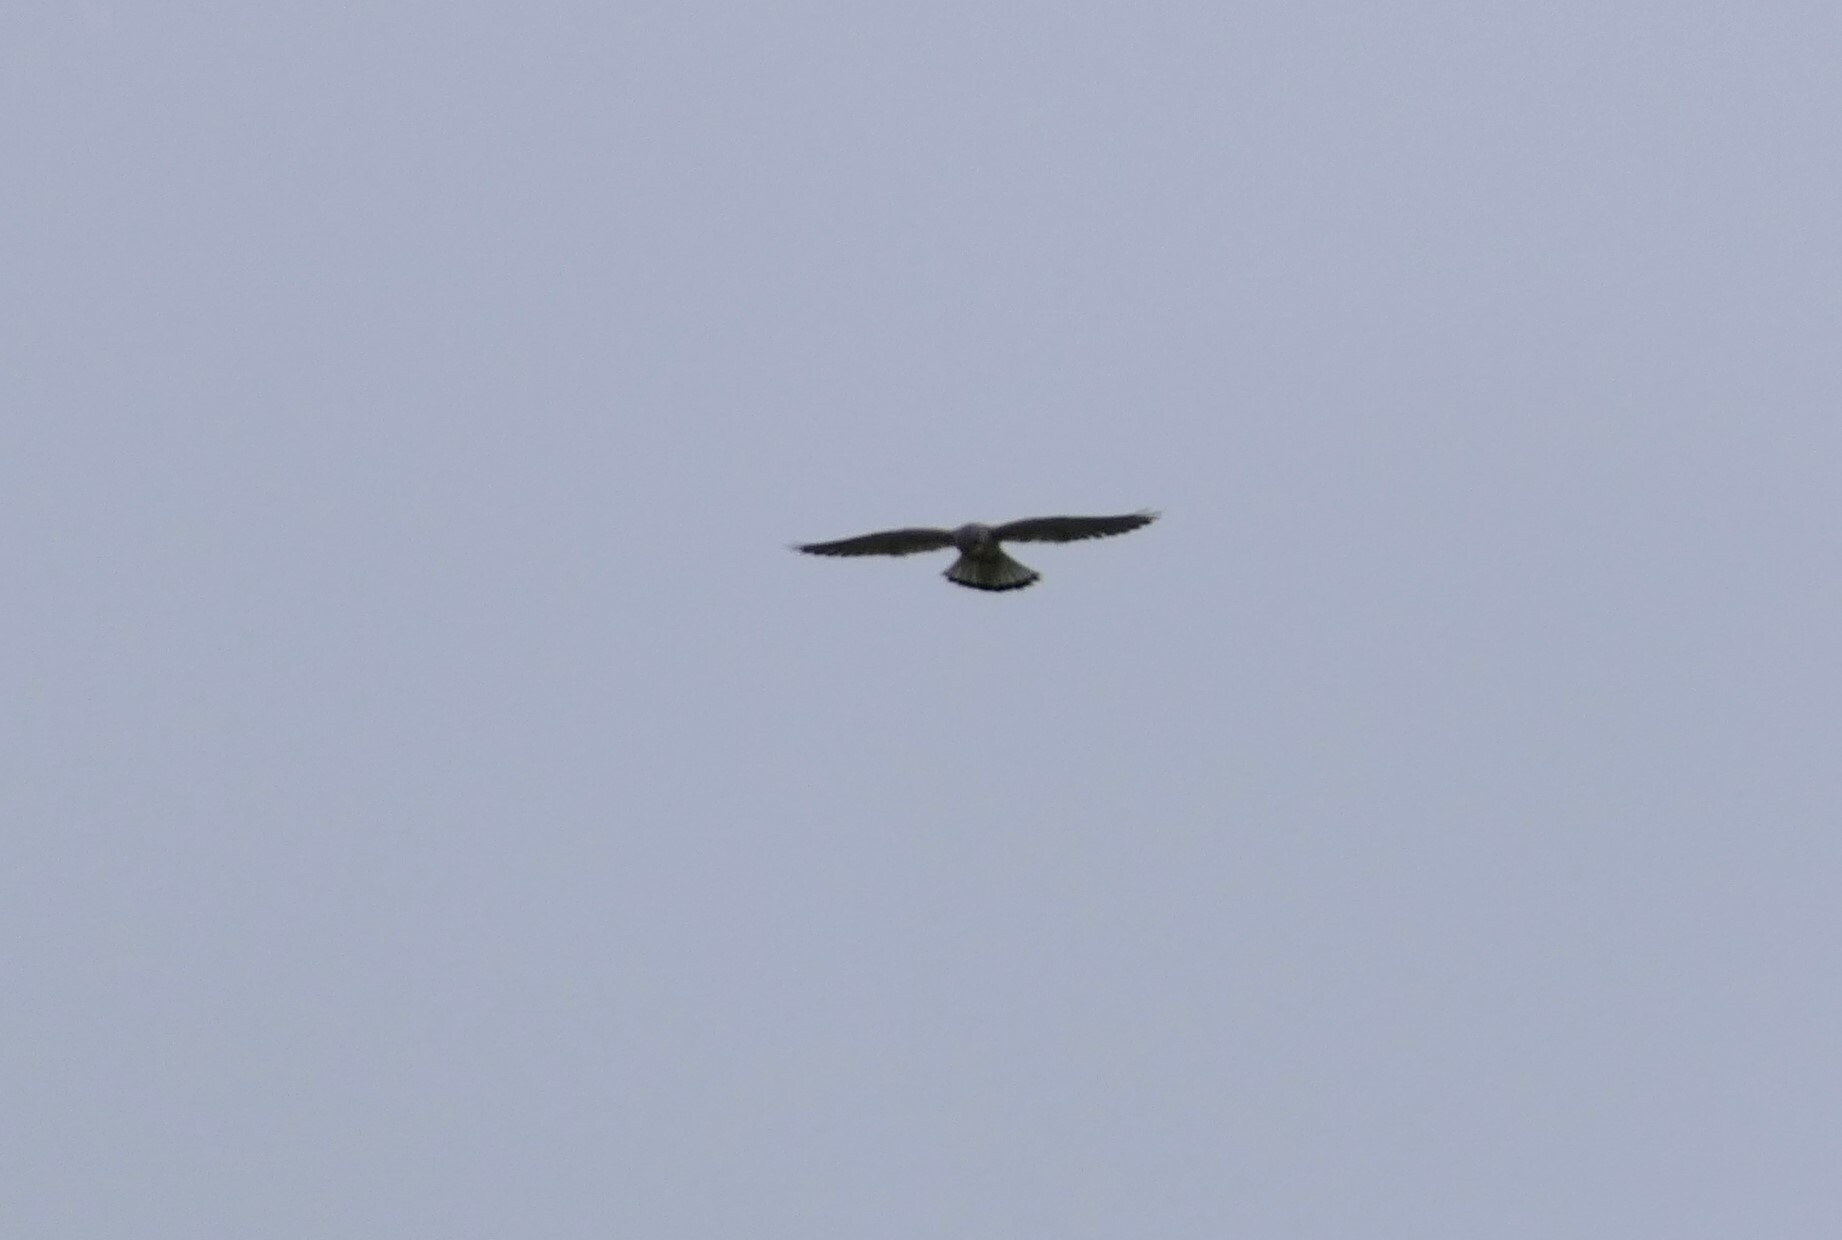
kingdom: Animalia
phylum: Chordata
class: Aves
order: Falconiformes
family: Falconidae
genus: Falco
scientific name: Falco tinnunculus
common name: Common kestrel
